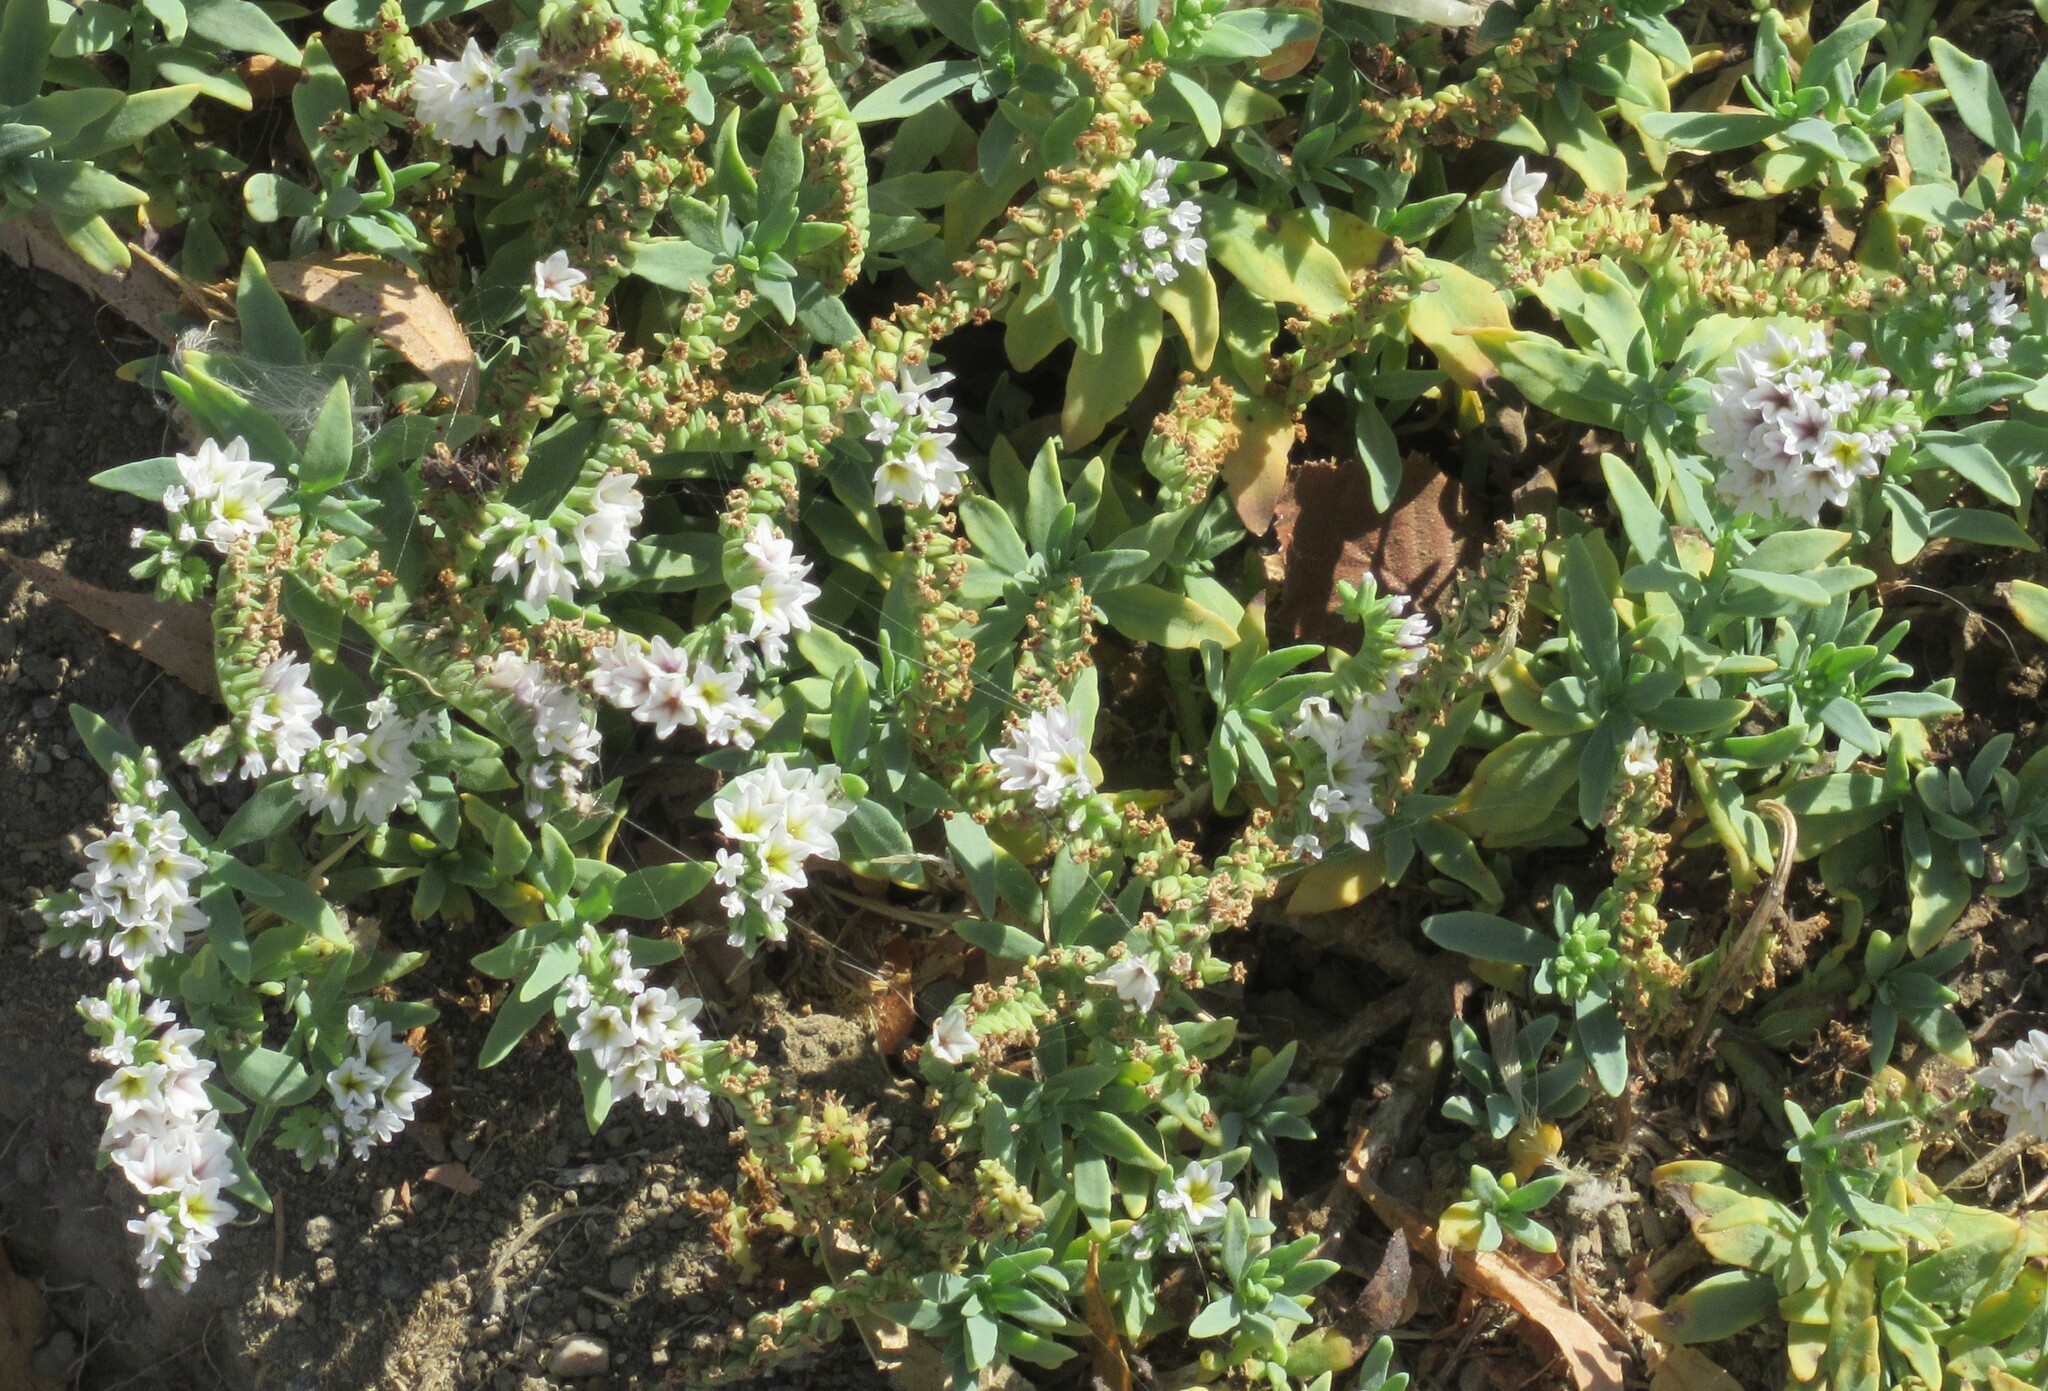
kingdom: Plantae
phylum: Tracheophyta
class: Magnoliopsida
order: Boraginales
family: Heliotropiaceae
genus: Heliotropium
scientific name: Heliotropium curassavicum
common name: Seaside heliotrope
